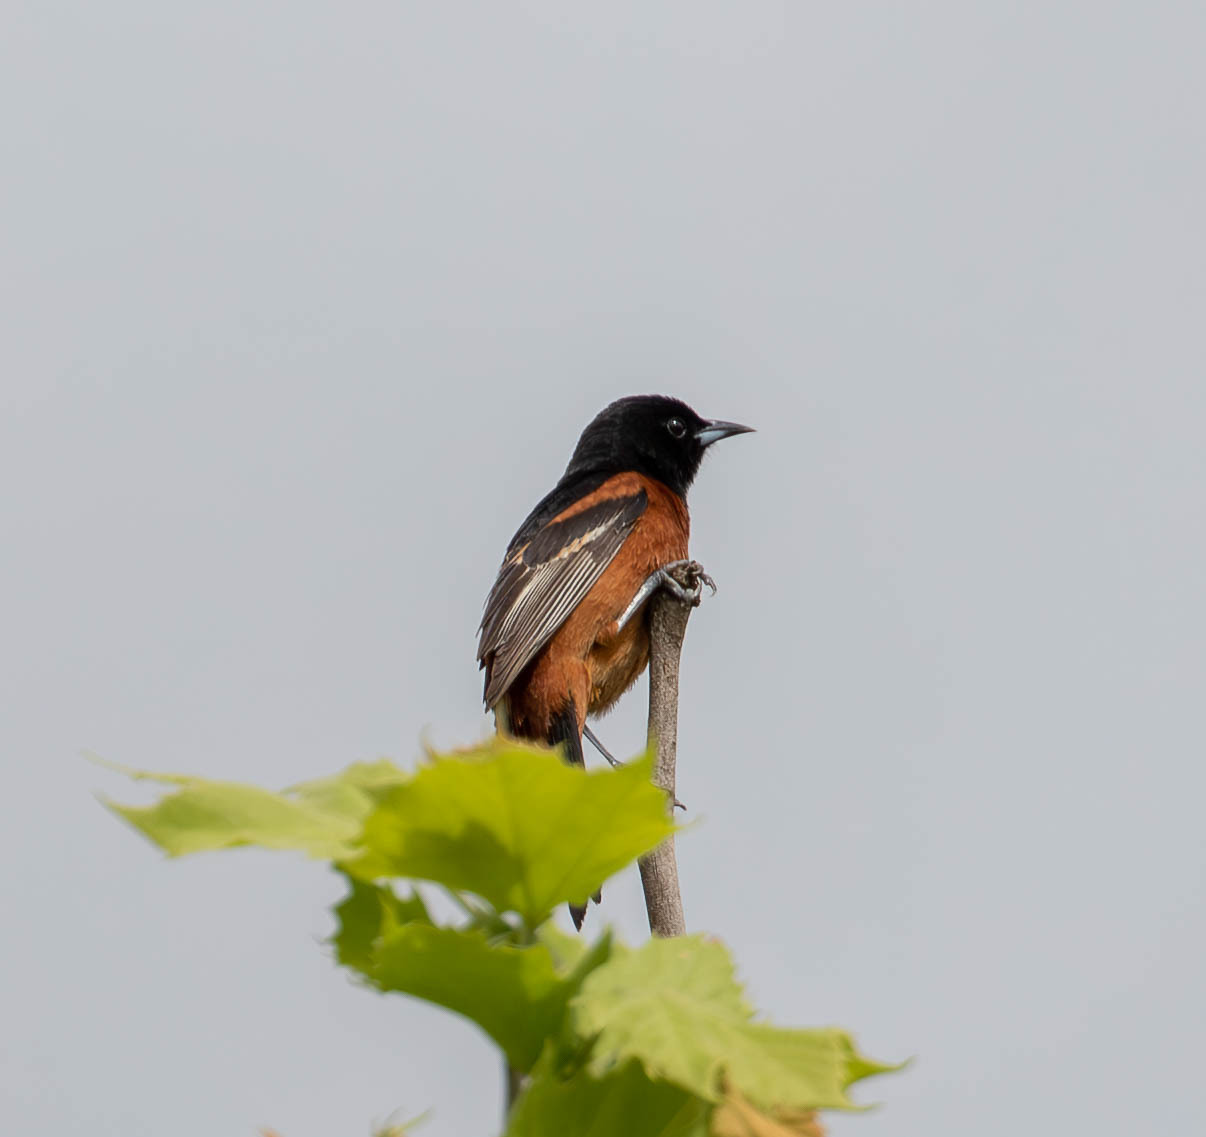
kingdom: Animalia
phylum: Chordata
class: Aves
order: Passeriformes
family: Icteridae
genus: Icterus
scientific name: Icterus spurius
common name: Orchard oriole
